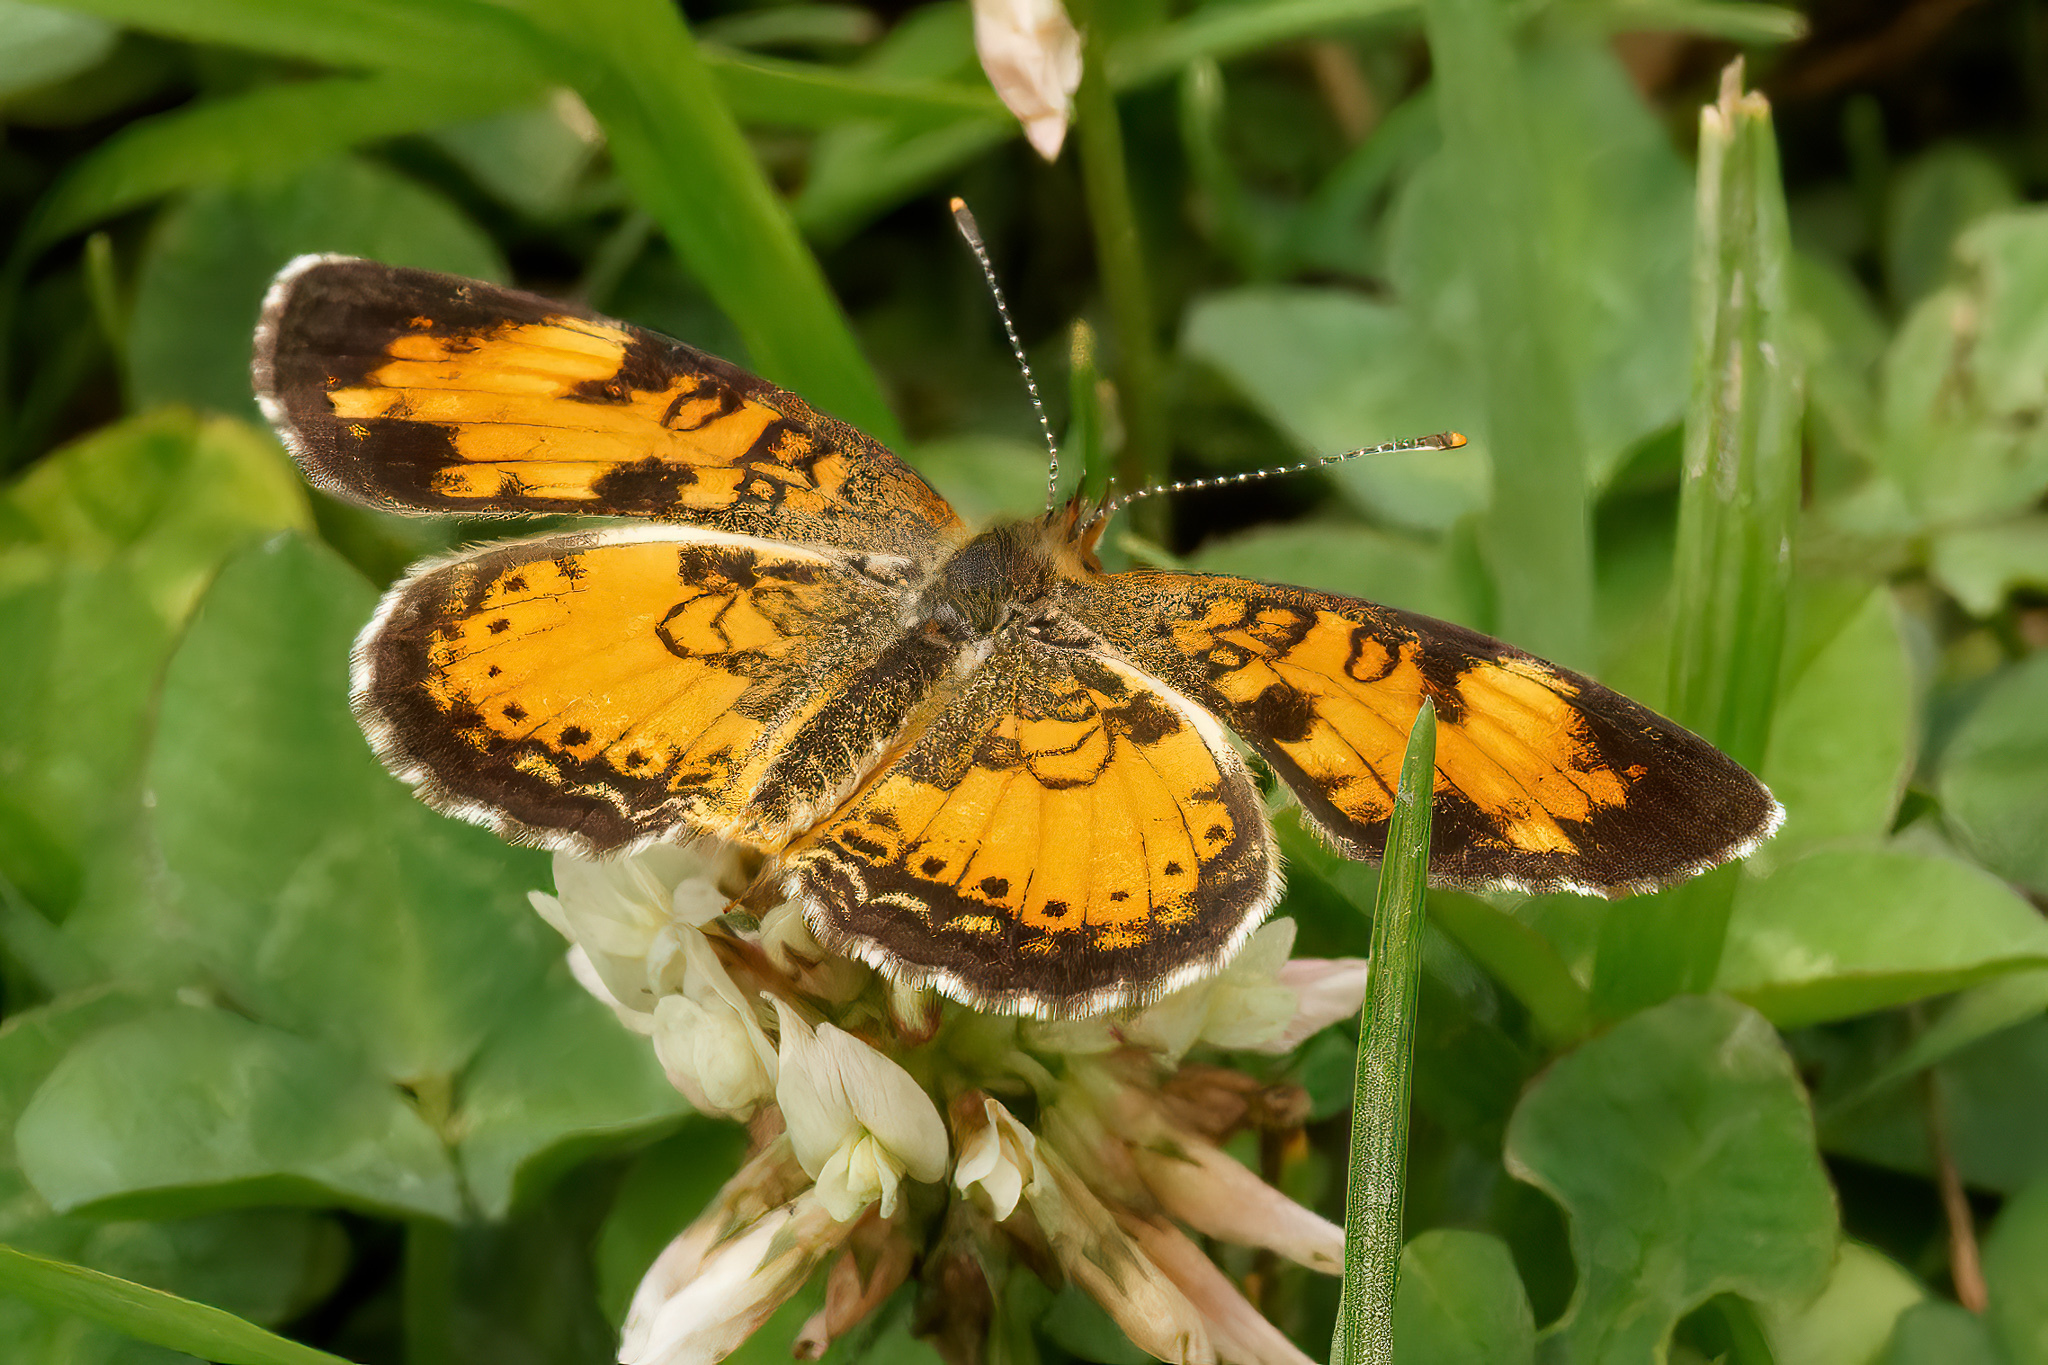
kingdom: Animalia
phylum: Arthropoda
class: Insecta
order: Lepidoptera
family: Nymphalidae
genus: Phyciodes
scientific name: Phyciodes tharos
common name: Pearl crescent
